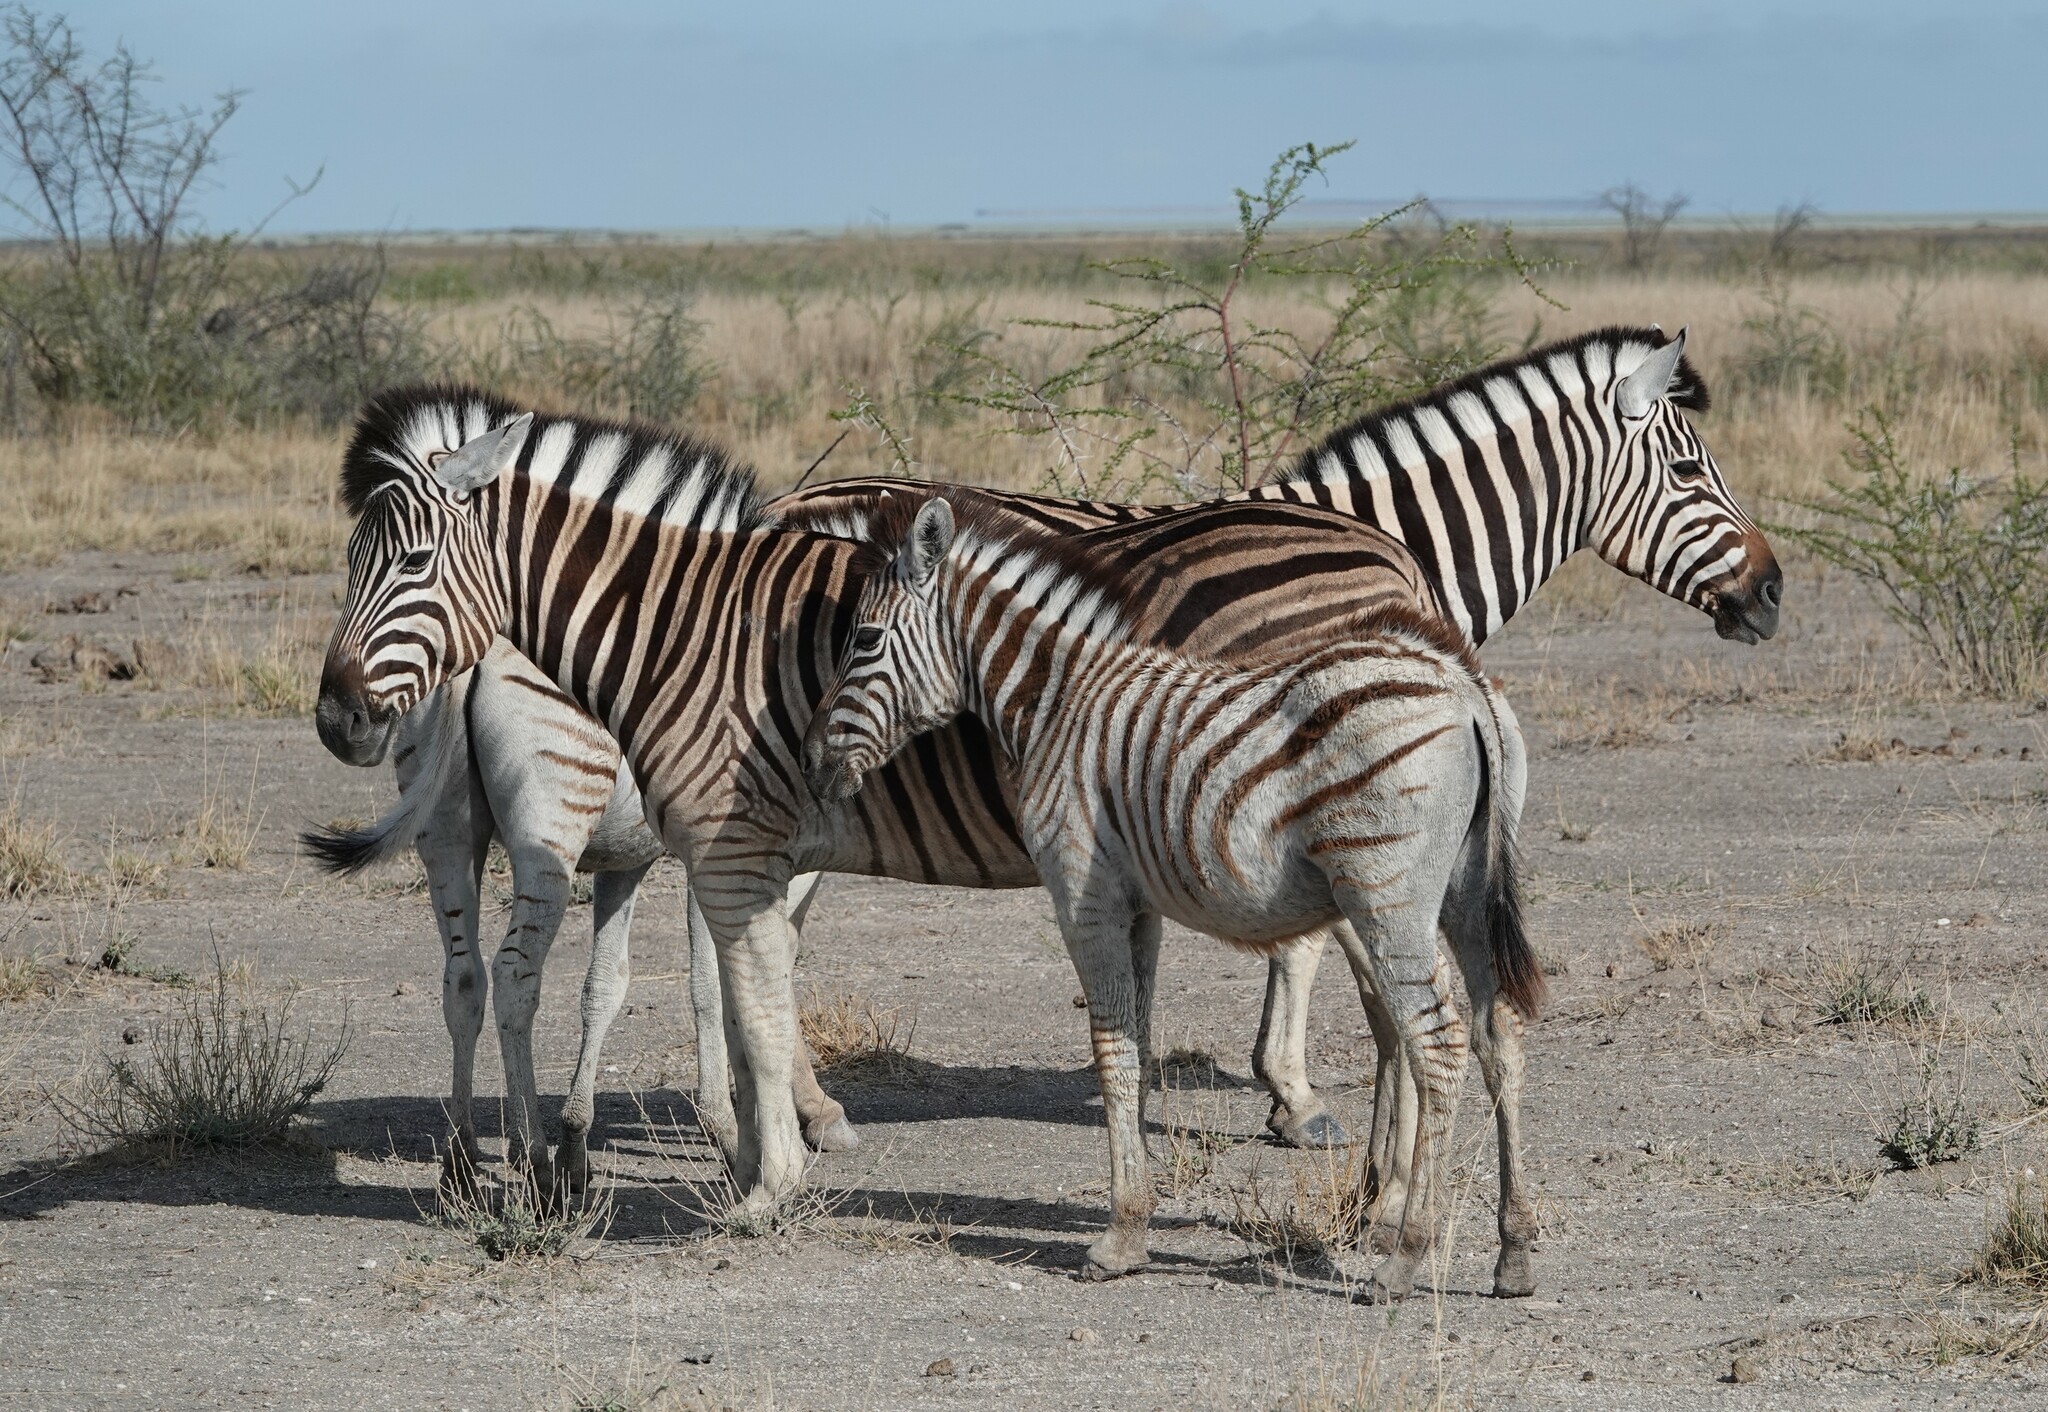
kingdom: Animalia
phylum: Chordata
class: Mammalia
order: Perissodactyla
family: Equidae
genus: Equus
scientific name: Equus quagga
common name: Plains zebra
